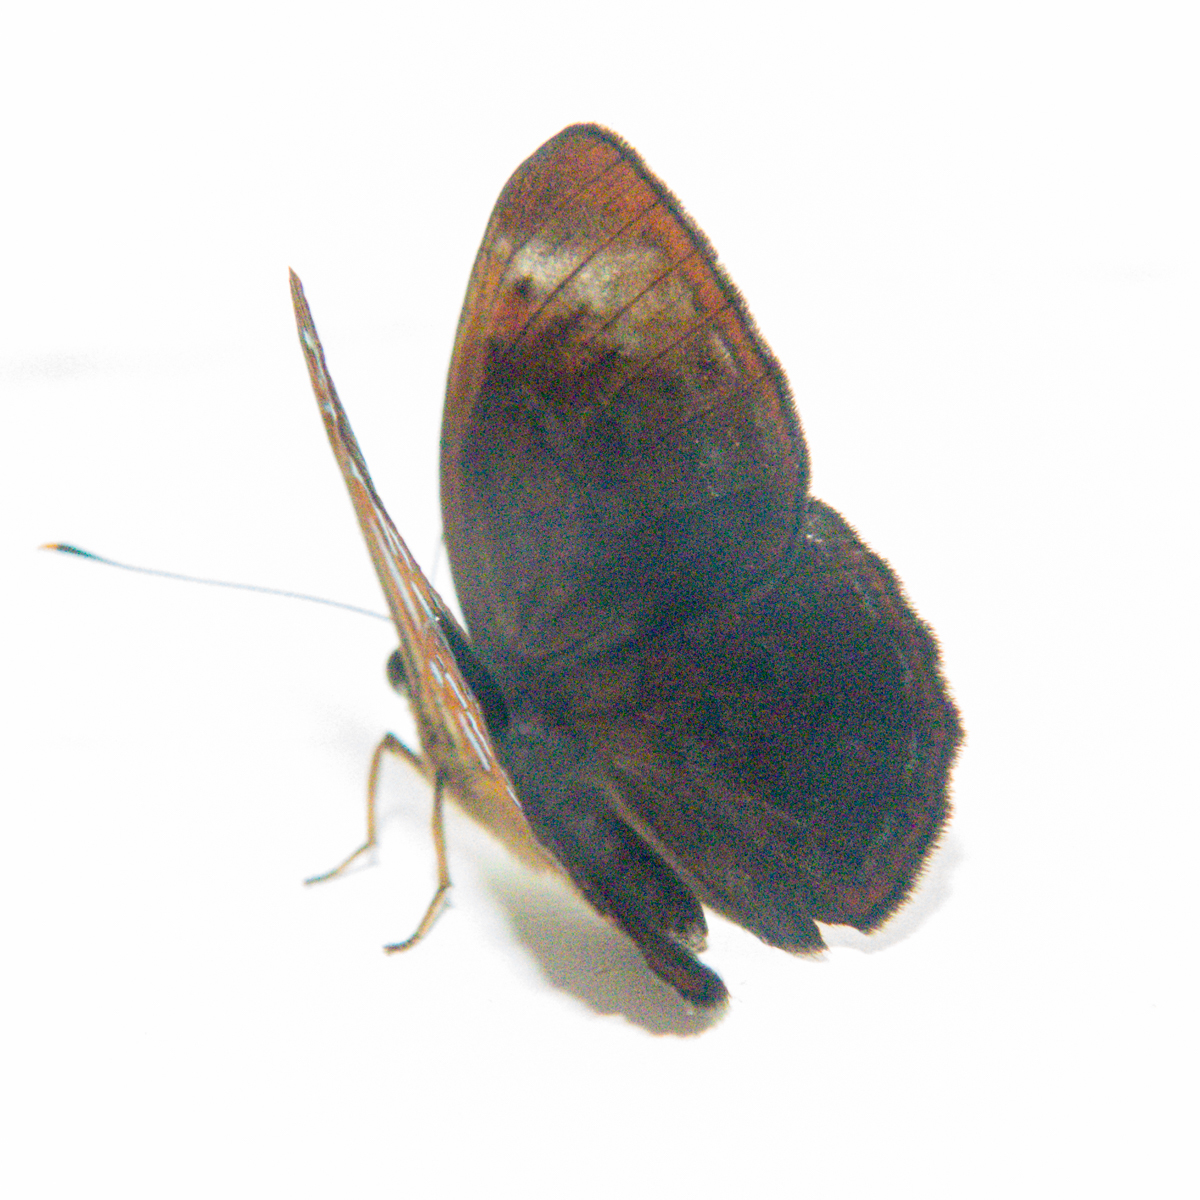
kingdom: Animalia
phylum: Arthropoda
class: Insecta
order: Lepidoptera
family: Erebidae
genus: Dysschema
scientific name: Dysschema
